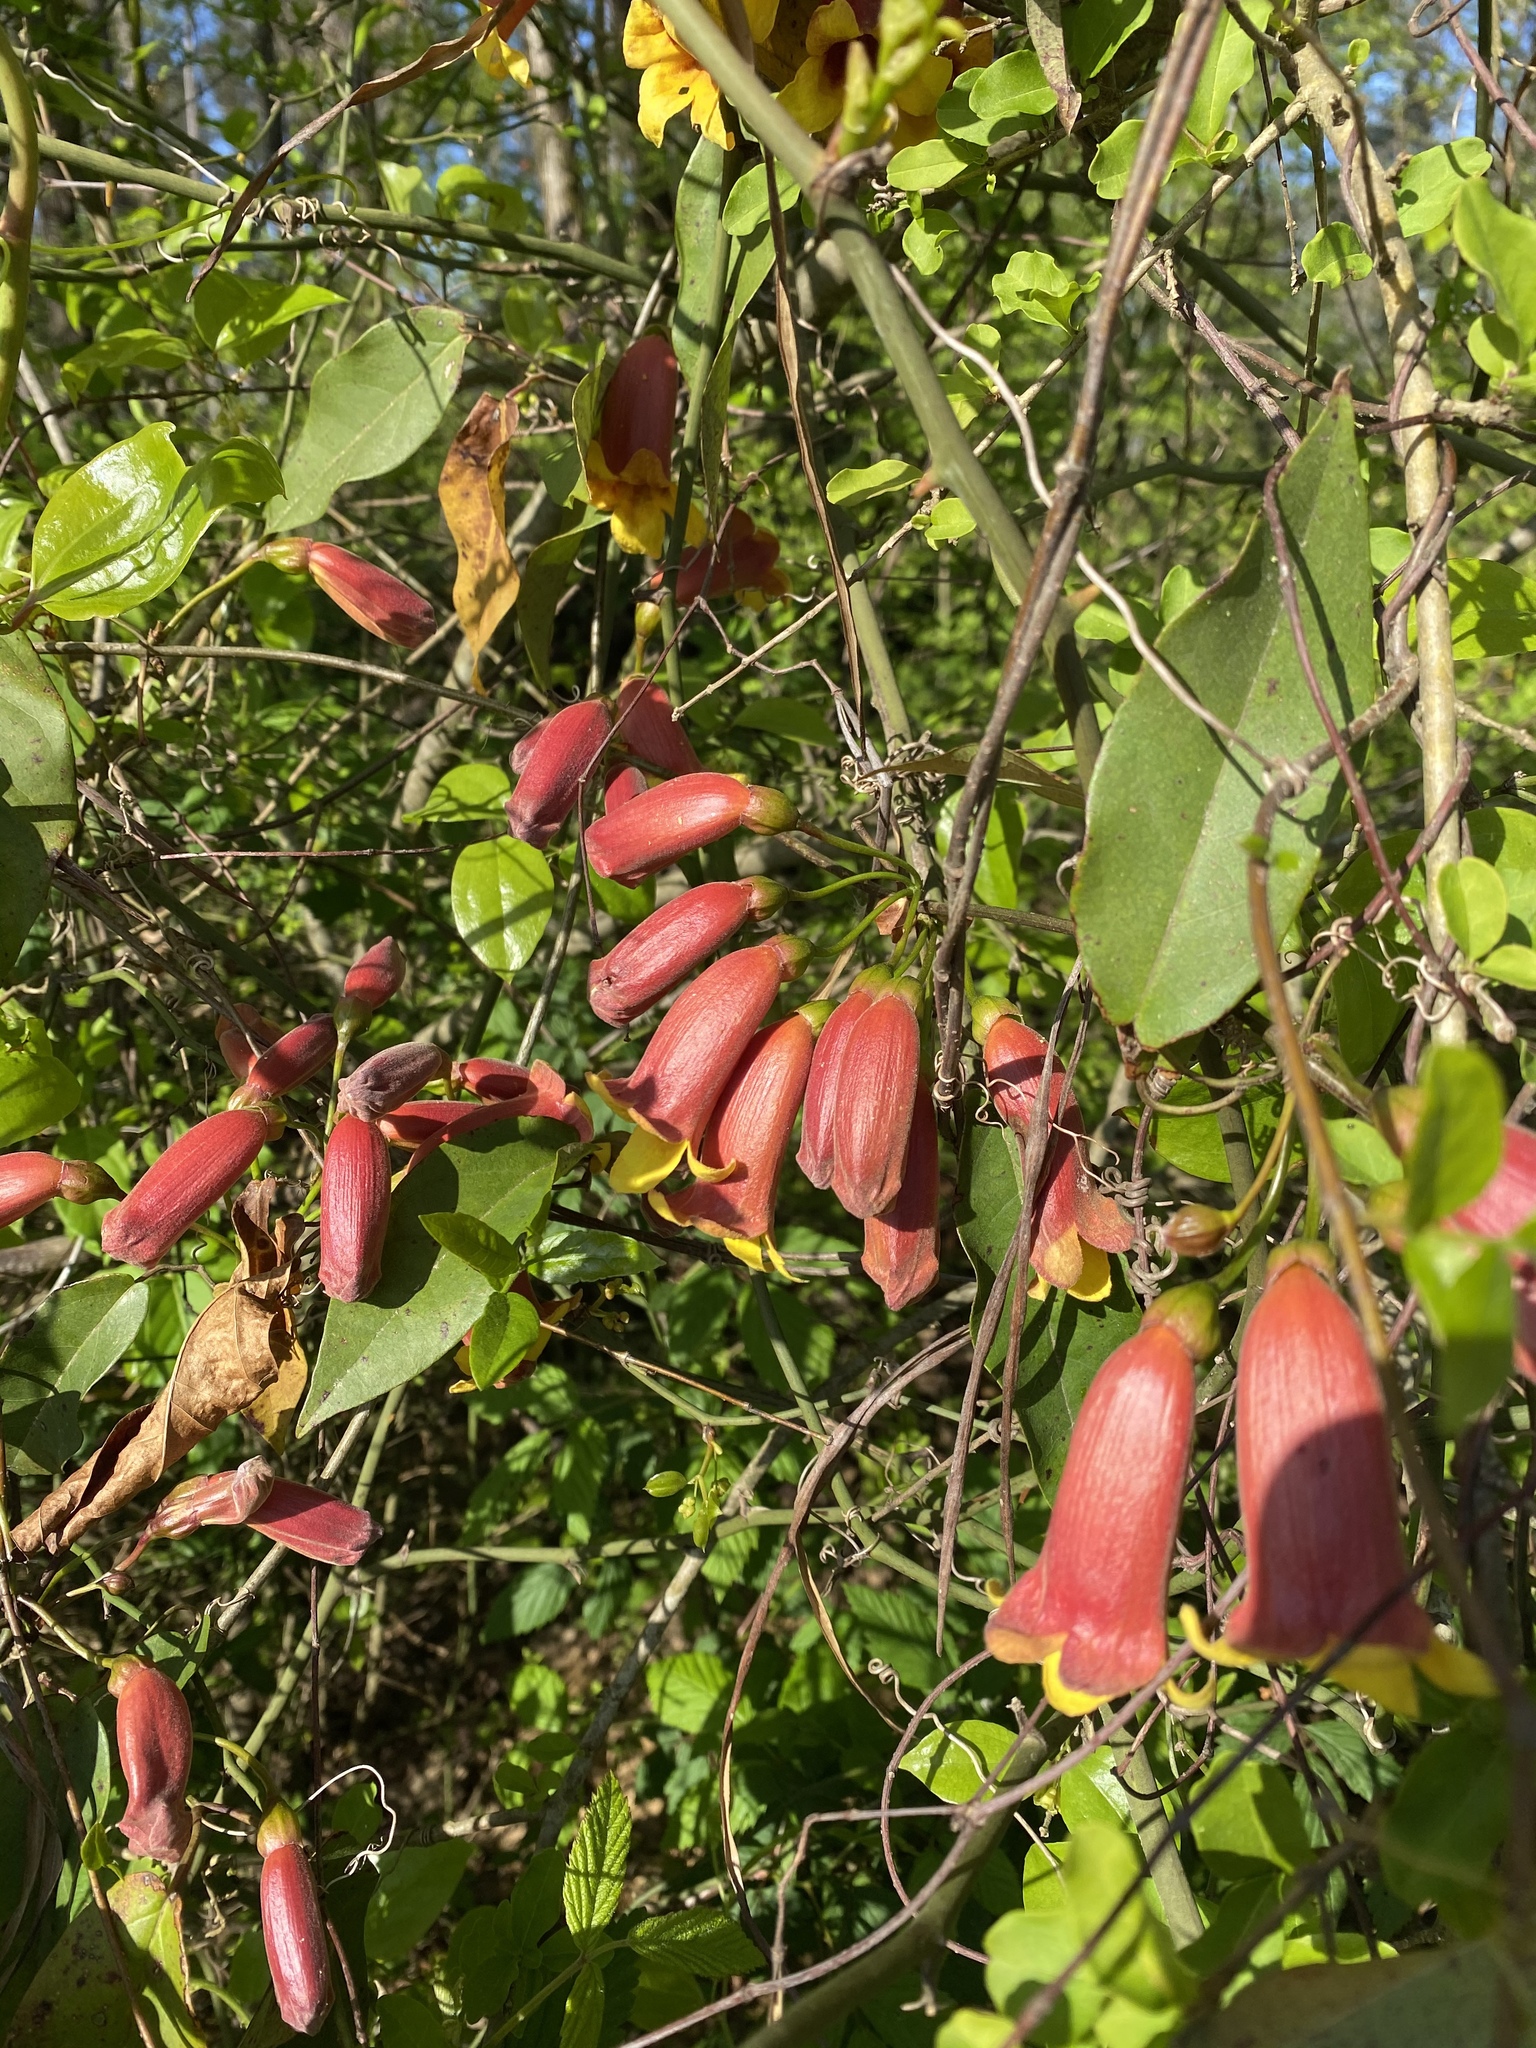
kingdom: Plantae
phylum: Tracheophyta
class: Magnoliopsida
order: Lamiales
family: Bignoniaceae
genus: Bignonia
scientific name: Bignonia capreolata
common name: Crossvine
